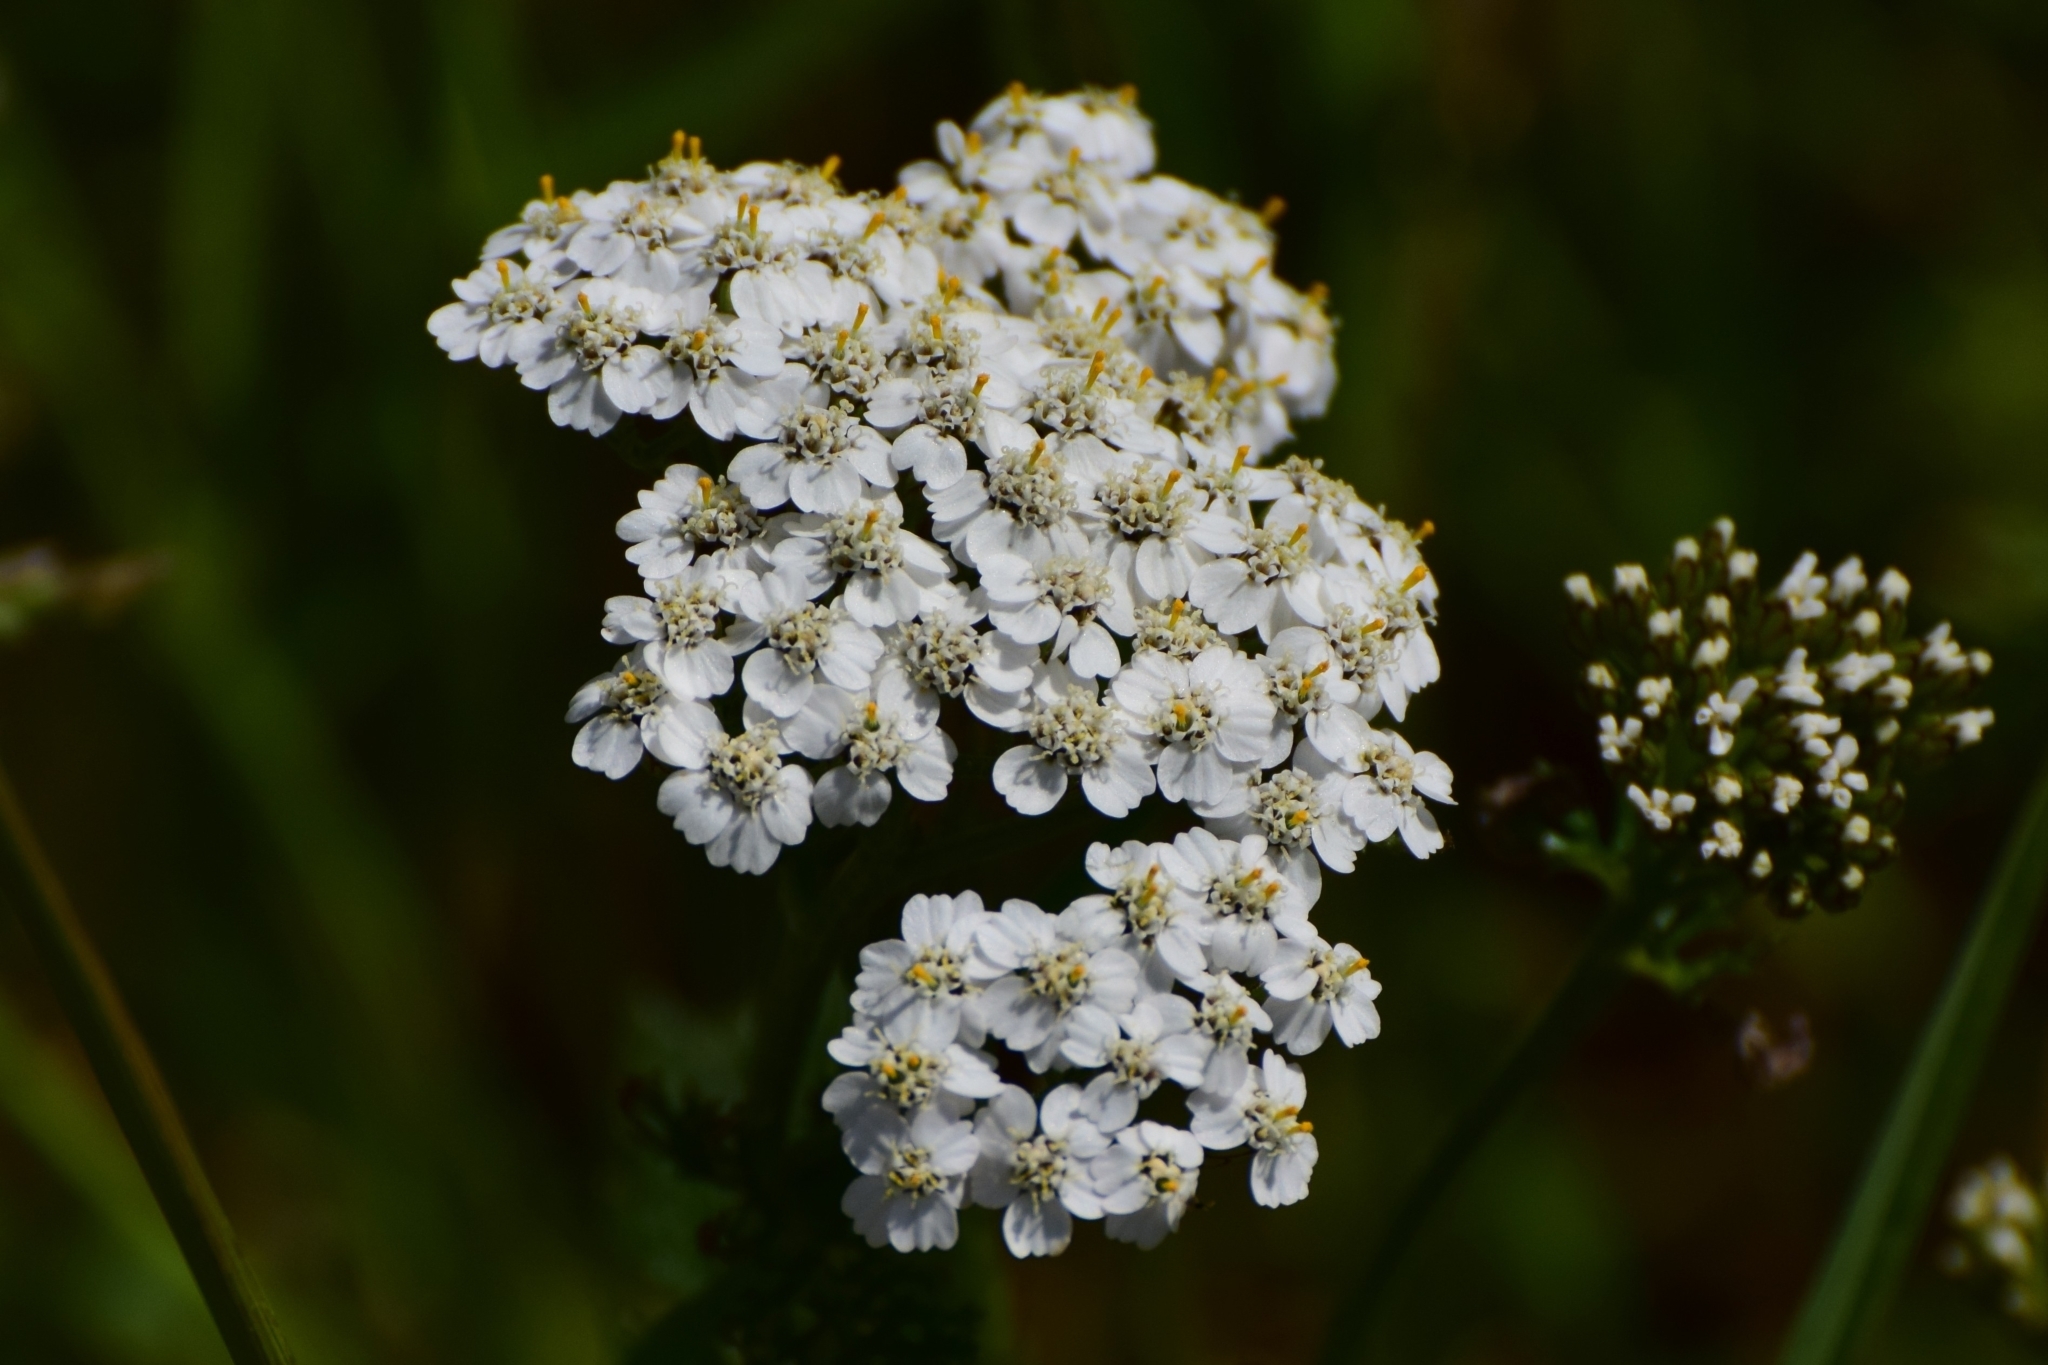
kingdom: Plantae
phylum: Tracheophyta
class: Magnoliopsida
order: Asterales
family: Asteraceae
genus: Achillea
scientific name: Achillea millefolium
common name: Yarrow
